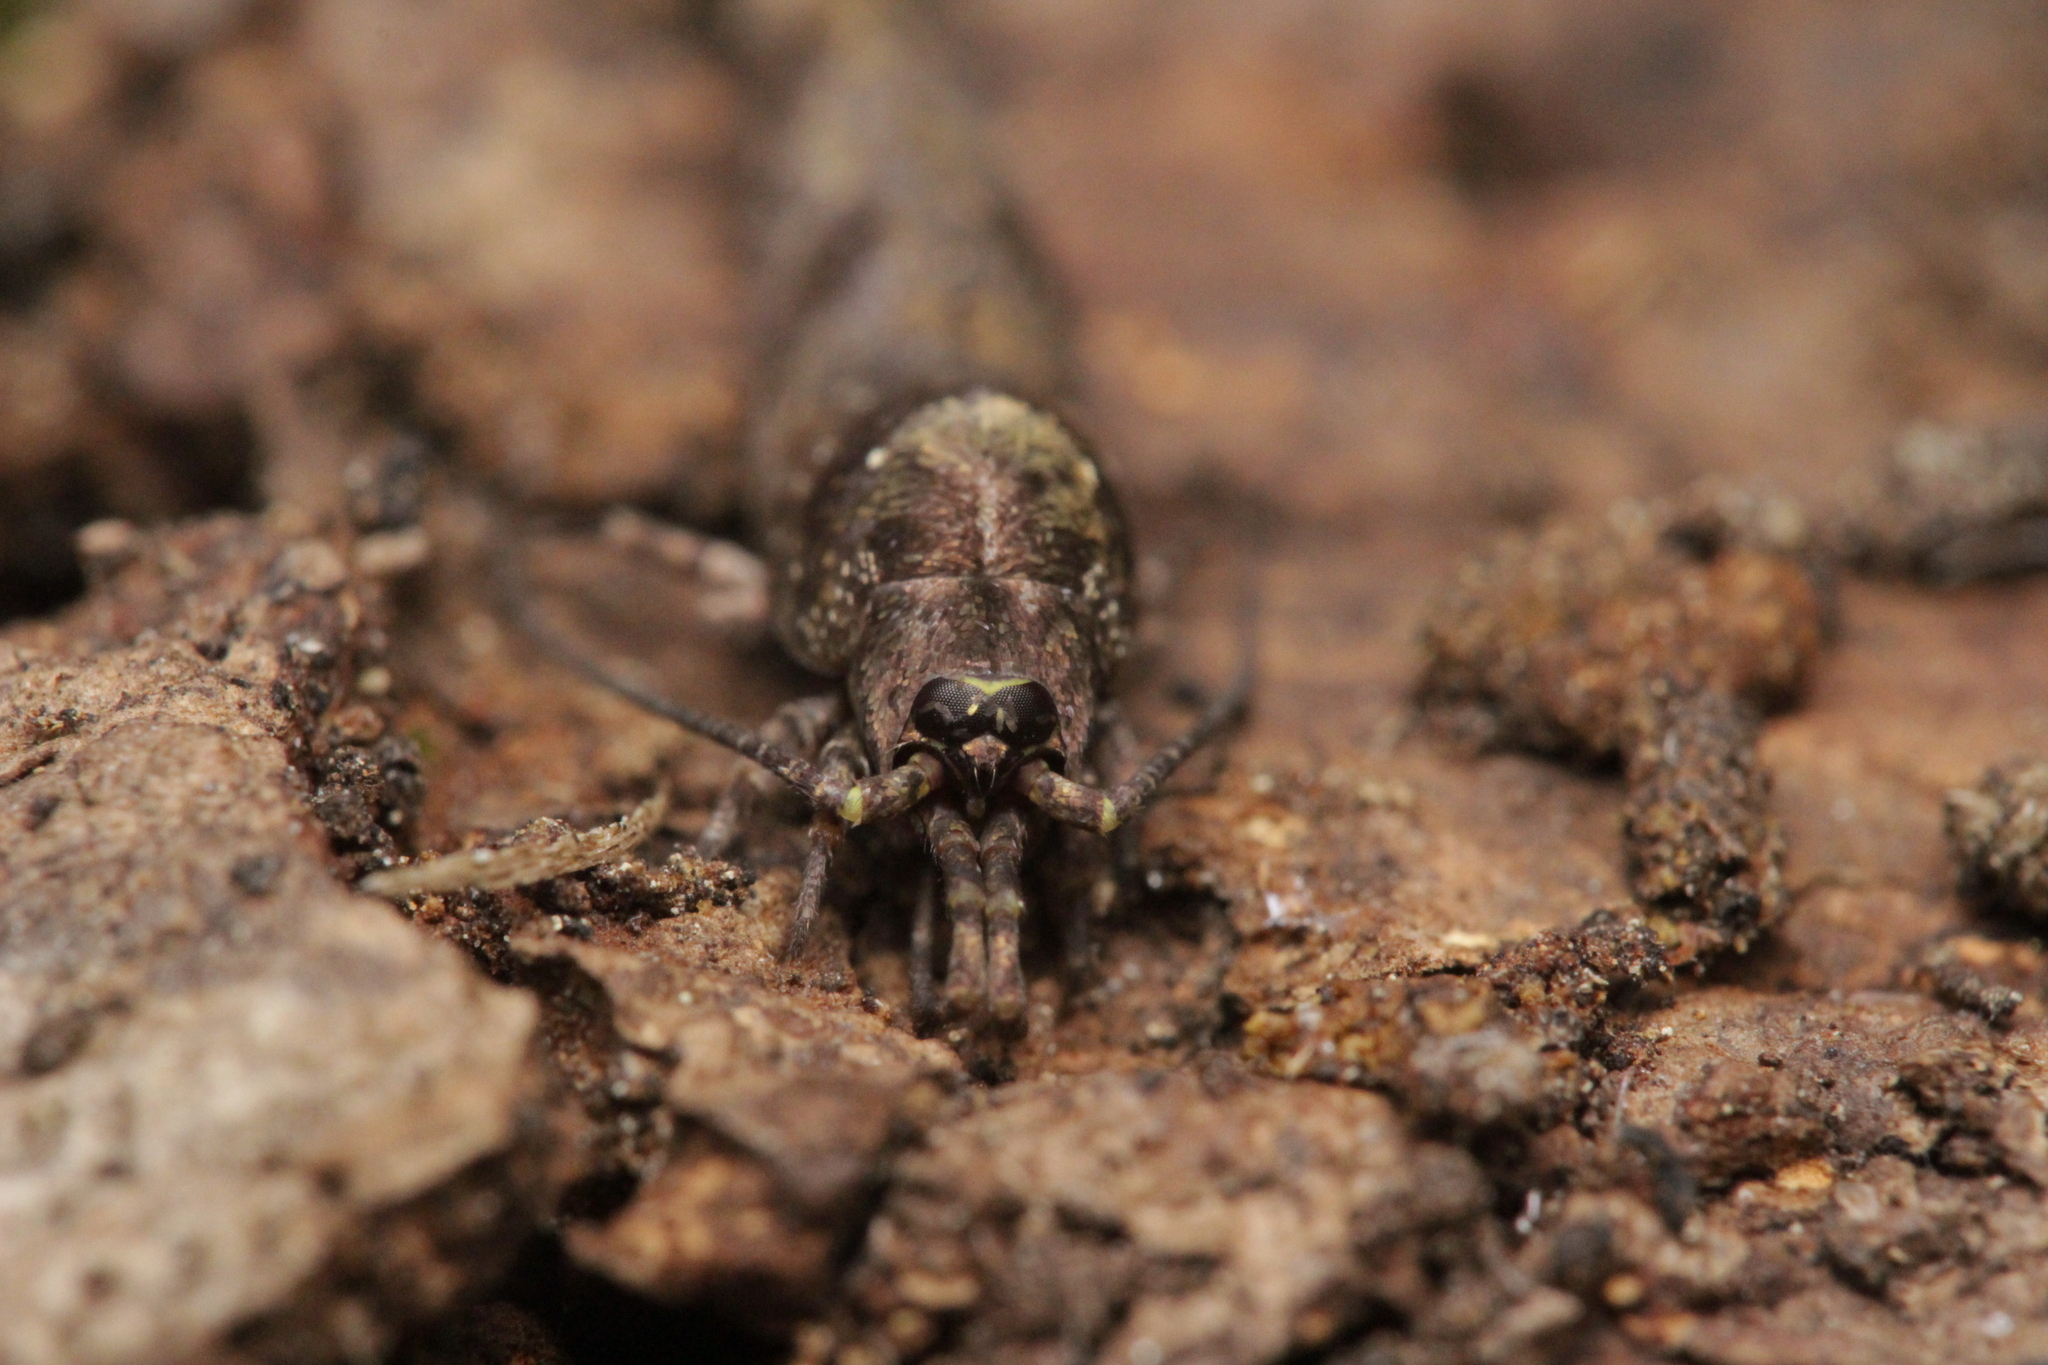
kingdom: Animalia
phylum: Arthropoda
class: Insecta
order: Archaeognatha
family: Machilidae
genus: Trigoniophthalmus
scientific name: Trigoniophthalmus alternatus
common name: Jumping bristletail
